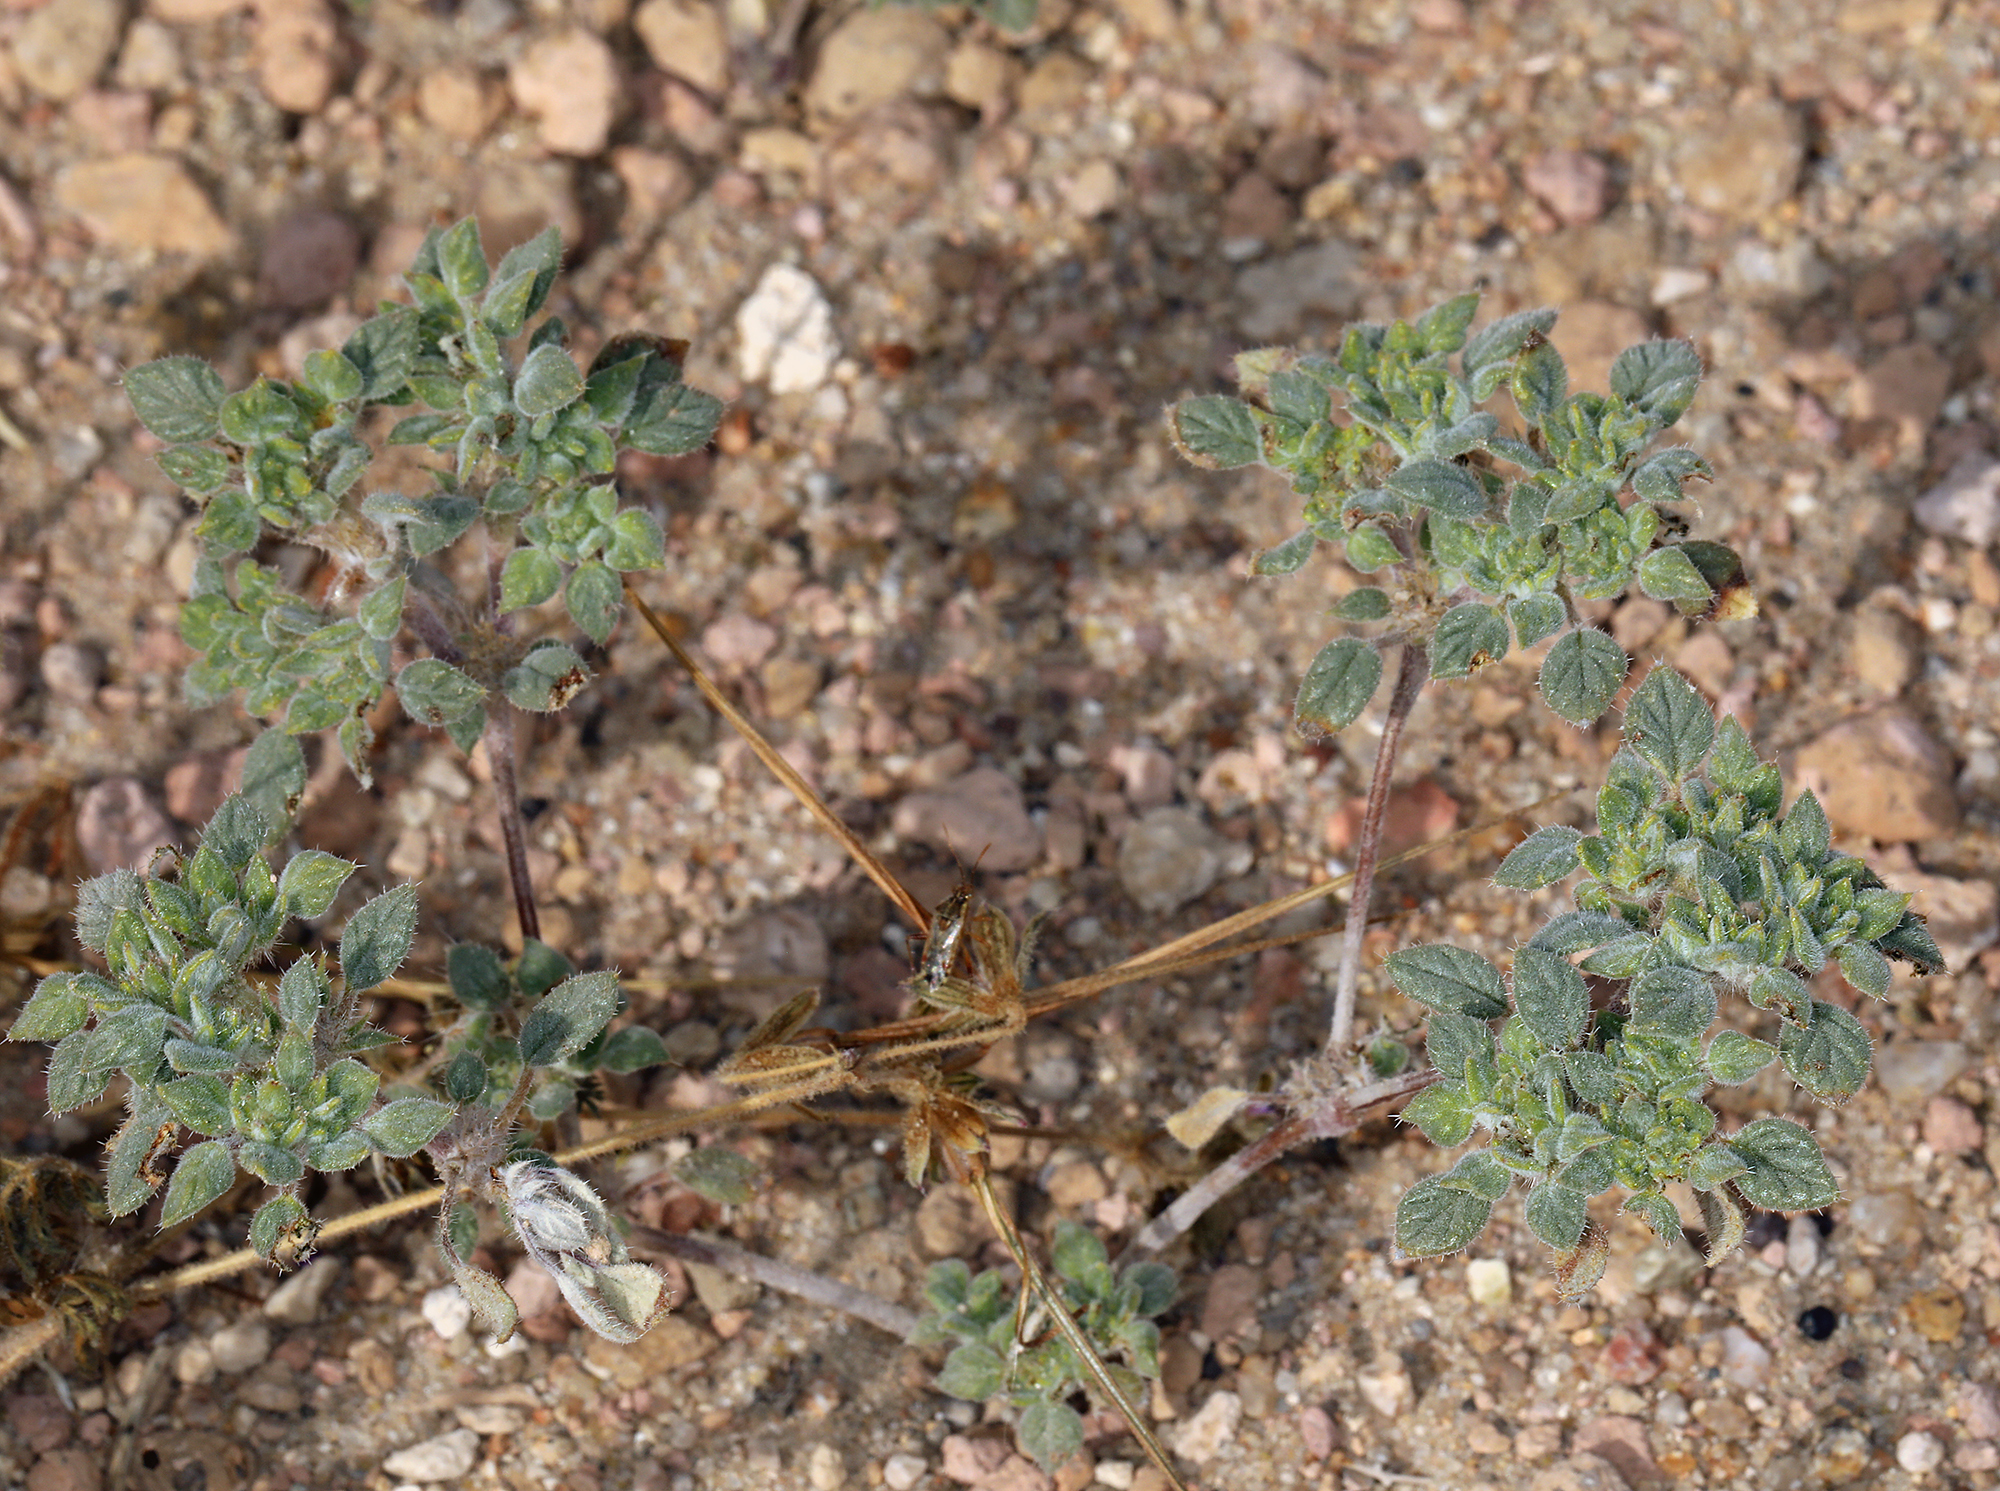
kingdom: Plantae
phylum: Tracheophyta
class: Magnoliopsida
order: Boraginales
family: Ehretiaceae
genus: Tiquilia
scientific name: Tiquilia nuttallii
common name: Rosette tiquilia
